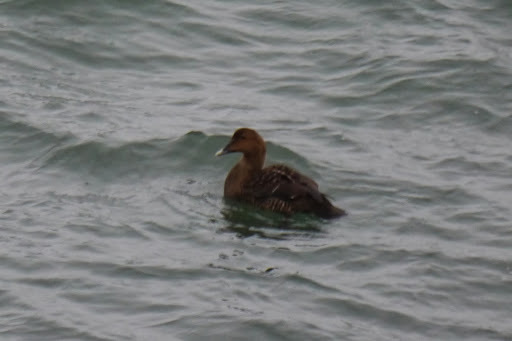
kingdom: Animalia
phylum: Chordata
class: Aves
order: Anseriformes
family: Anatidae
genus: Somateria
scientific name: Somateria mollissima
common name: Common eider
